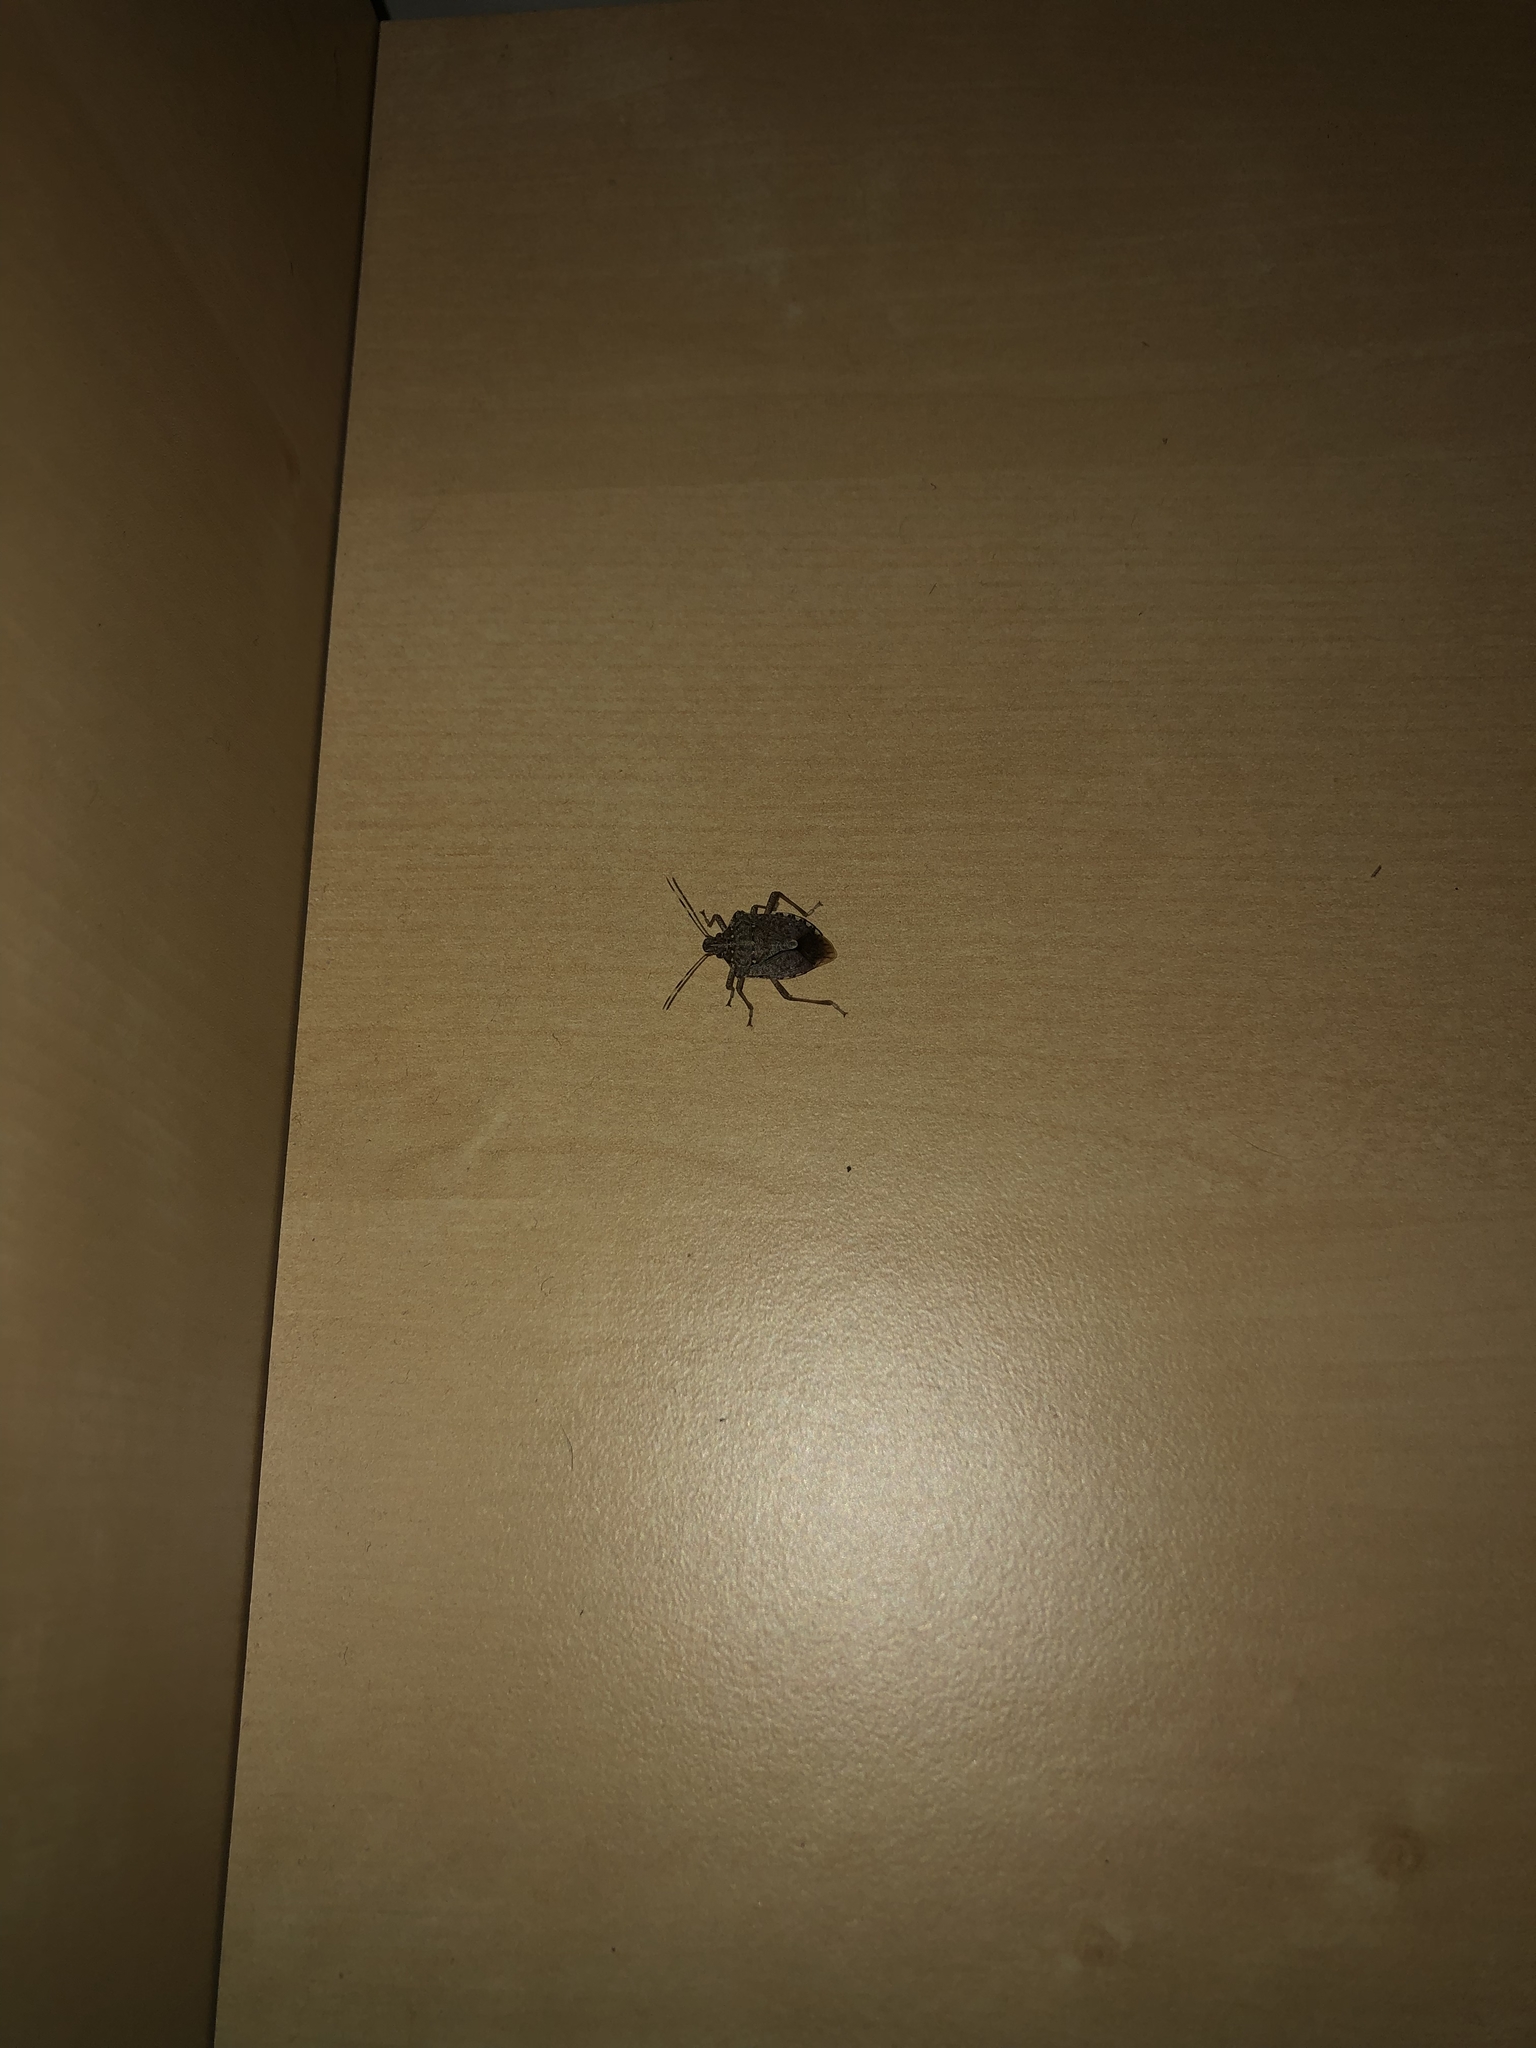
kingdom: Animalia
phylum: Arthropoda
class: Insecta
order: Hemiptera
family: Pentatomidae
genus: Halyomorpha
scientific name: Halyomorpha halys
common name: Brown marmorated stink bug
